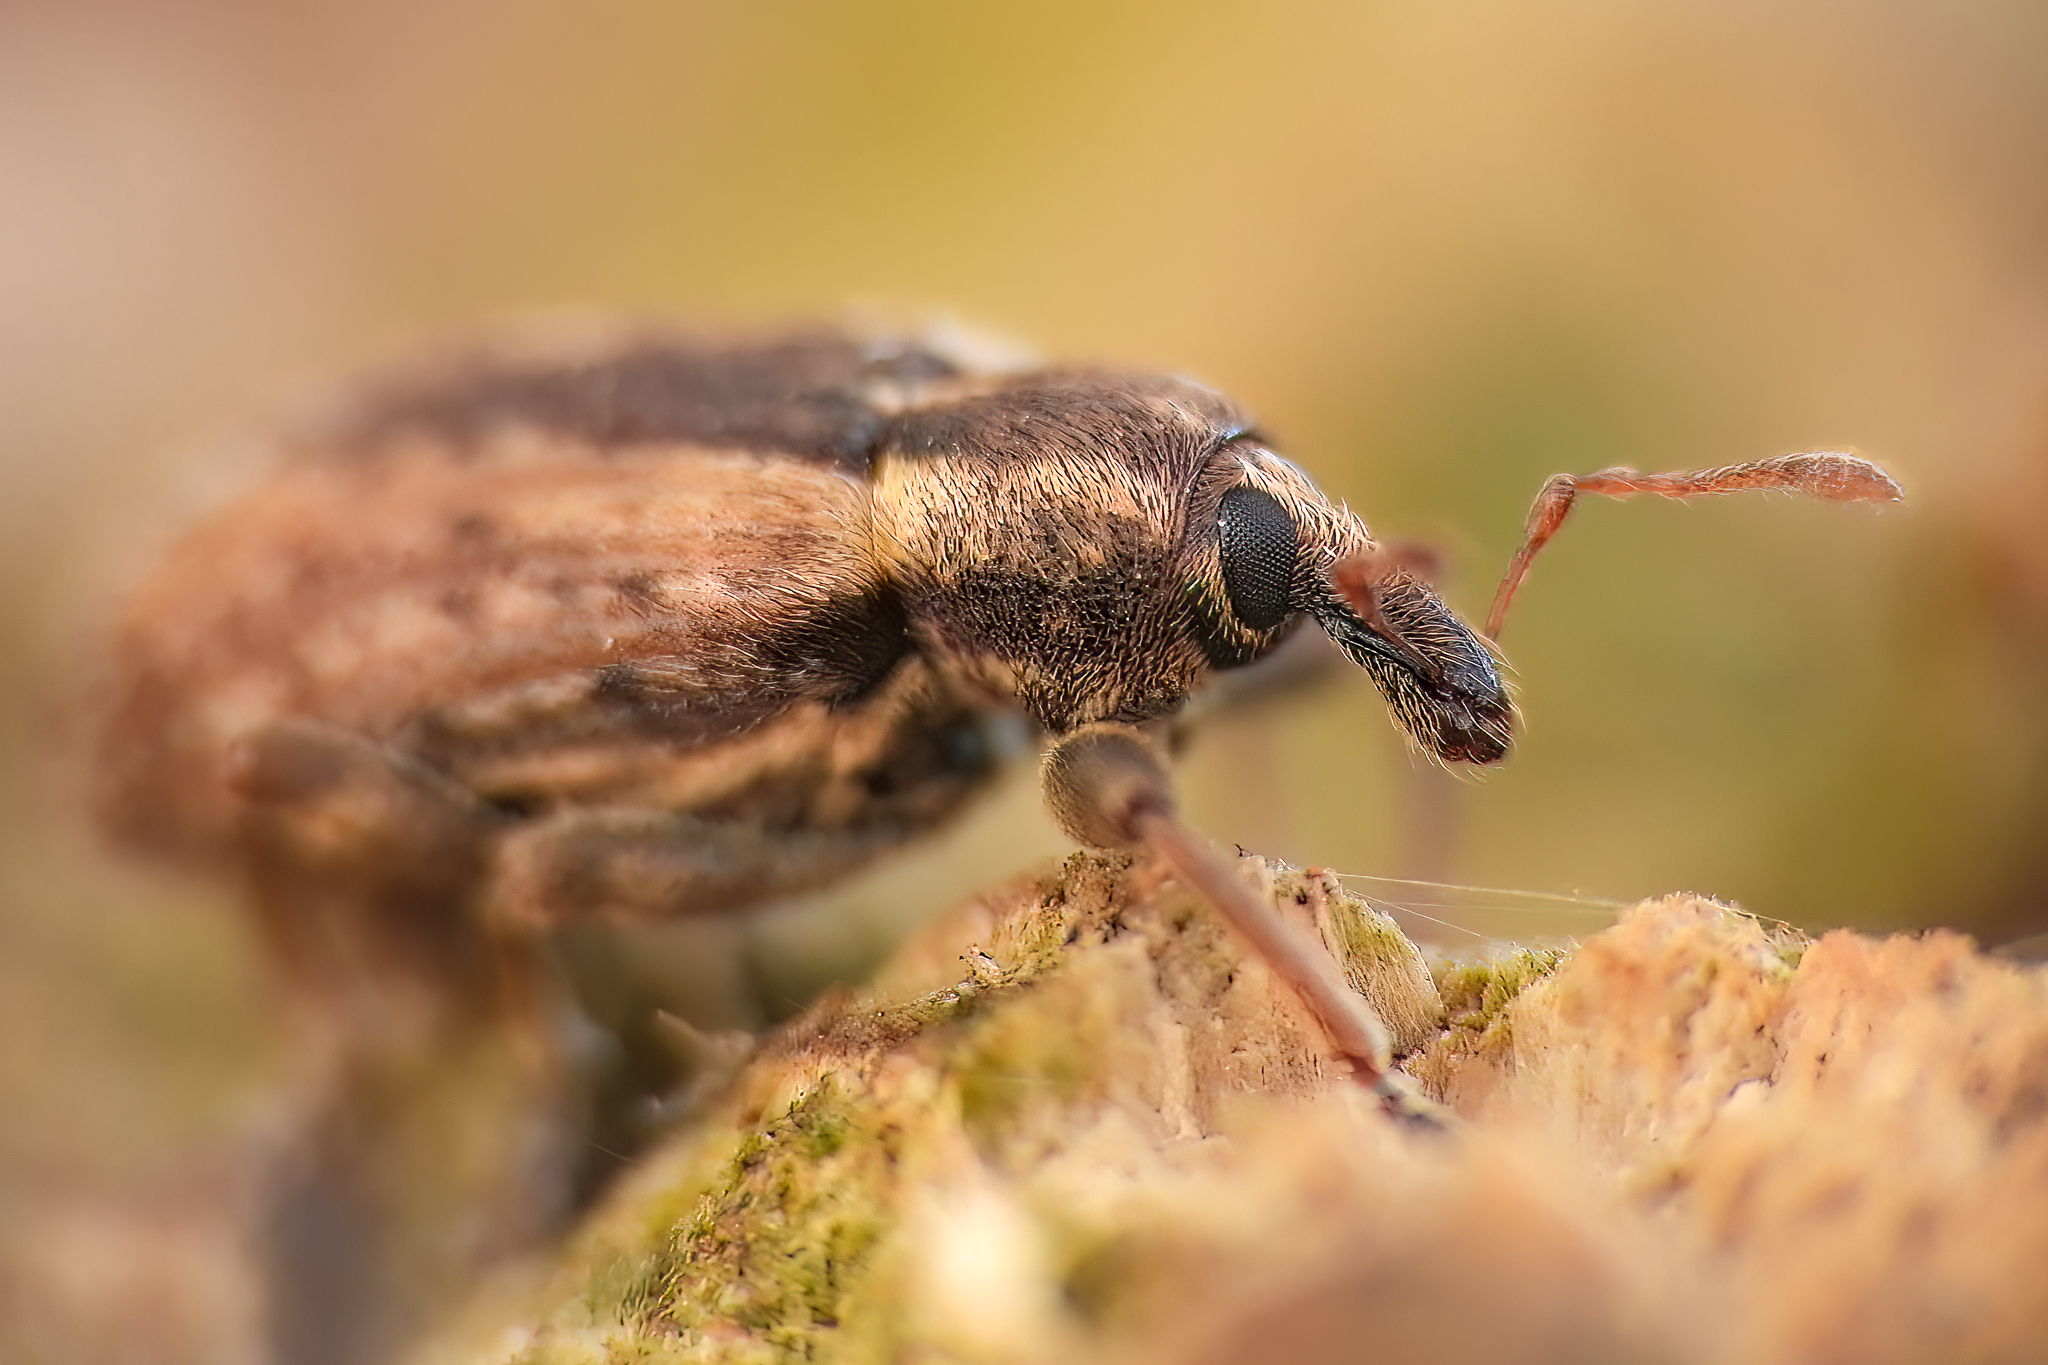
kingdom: Animalia
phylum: Arthropoda
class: Insecta
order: Coleoptera
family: Curculionidae
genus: Hypera
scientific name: Hypera postica
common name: Weevil
